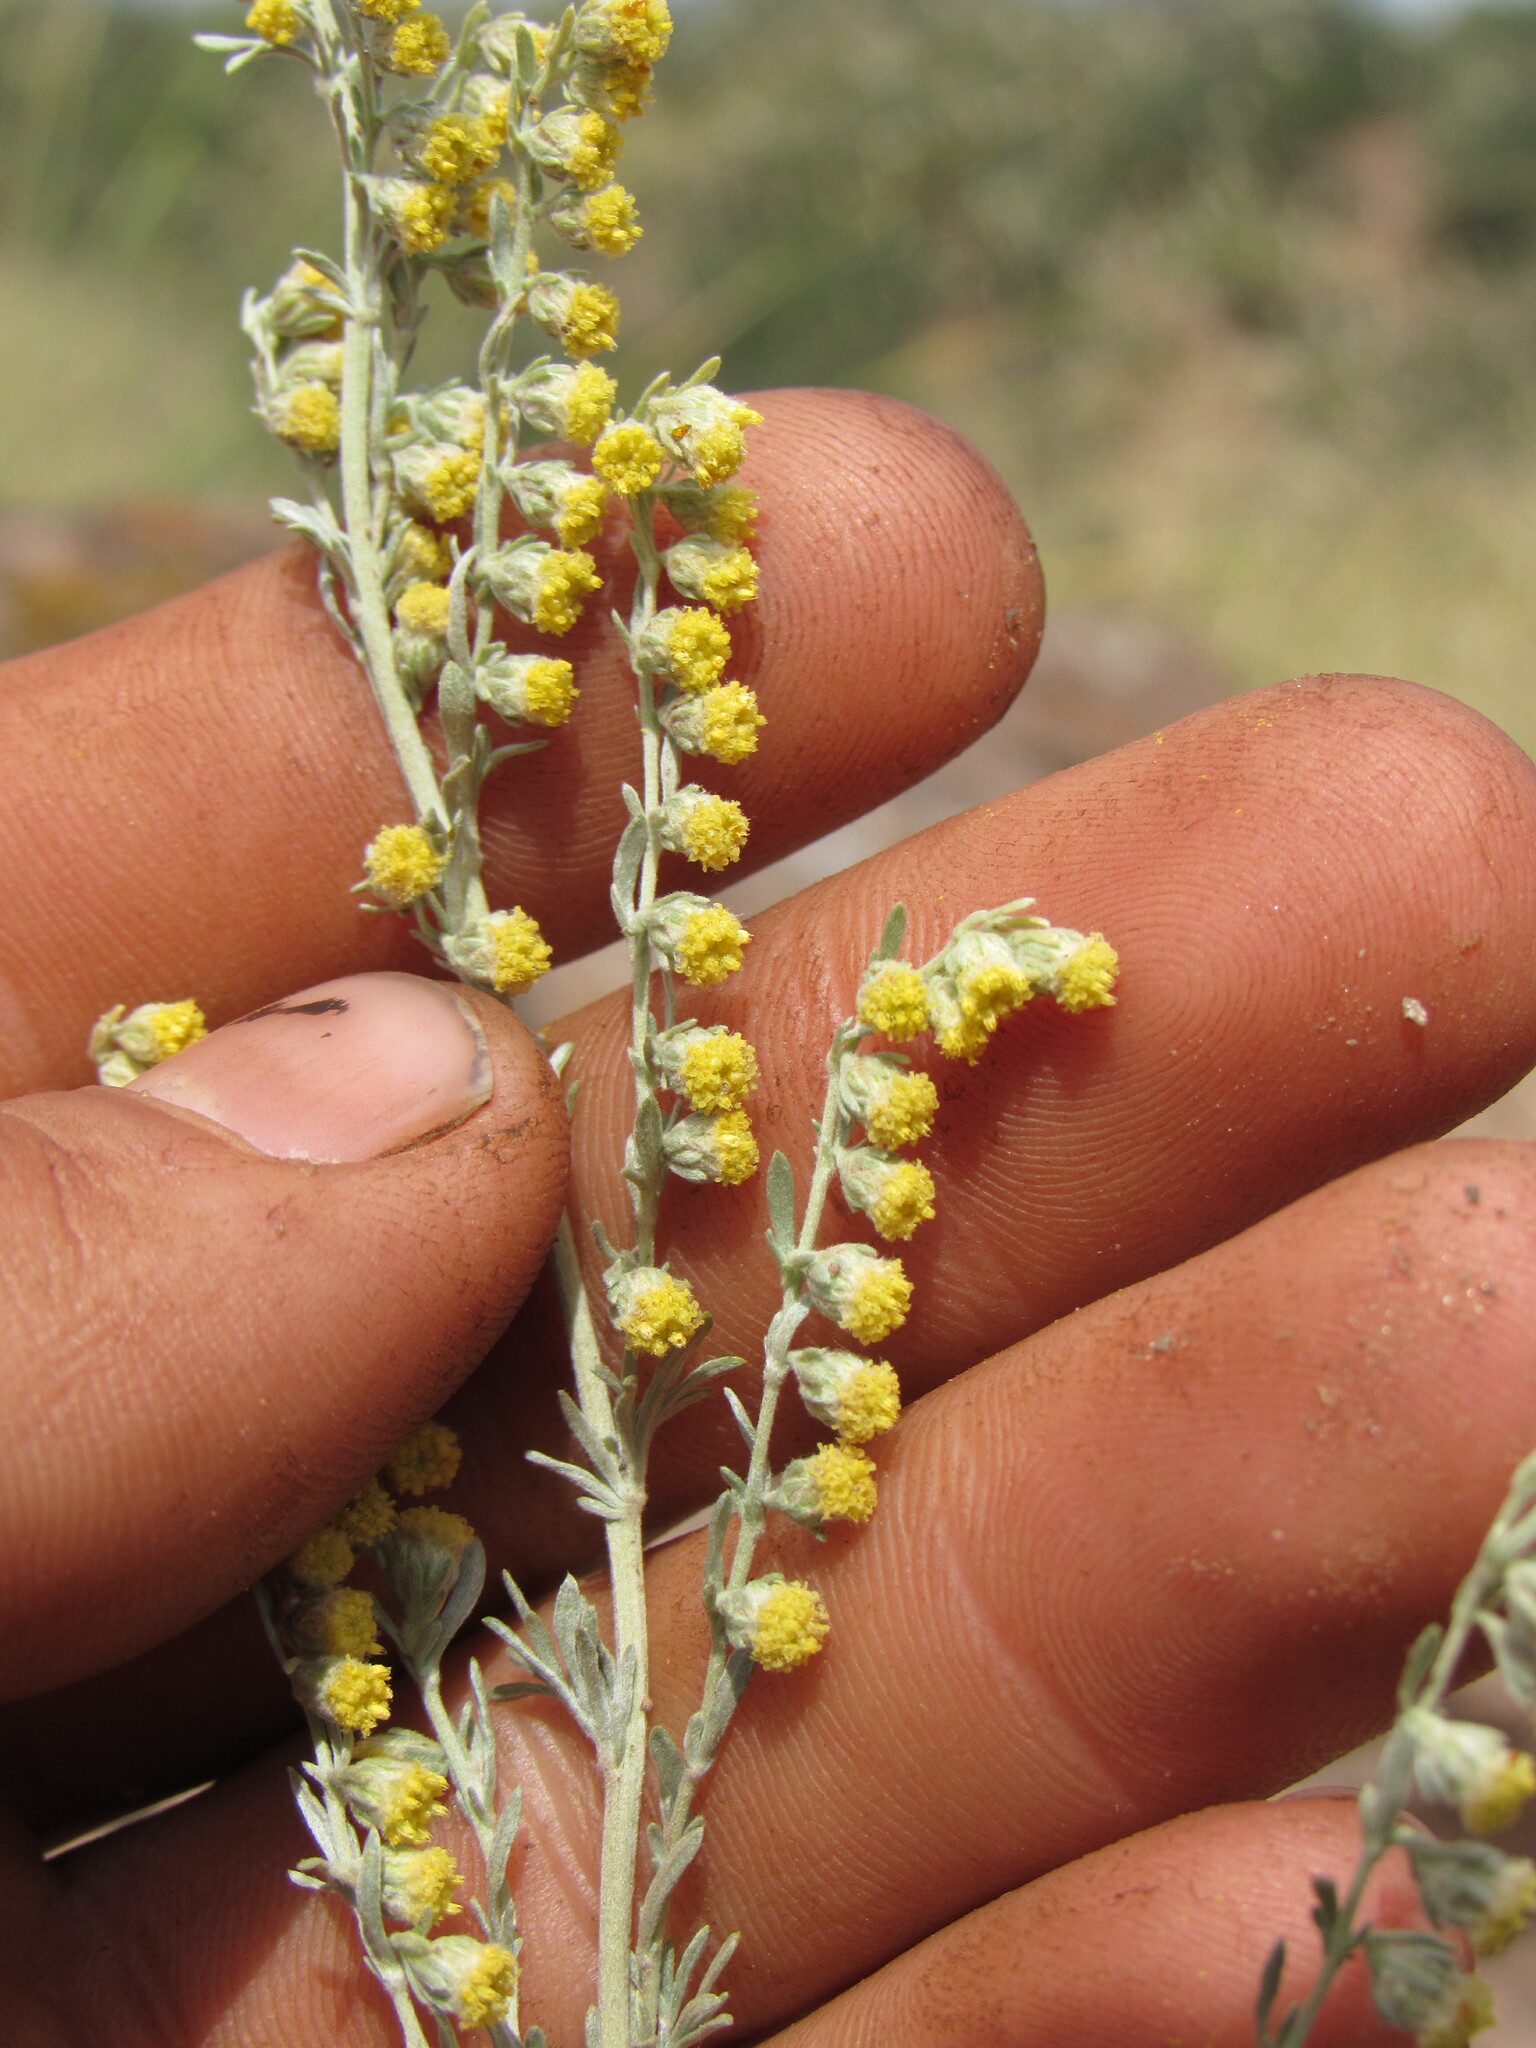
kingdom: Plantae
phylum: Tracheophyta
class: Magnoliopsida
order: Asterales
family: Asteraceae
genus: Artemisia
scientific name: Artemisia frigida
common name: Prairie sagewort
